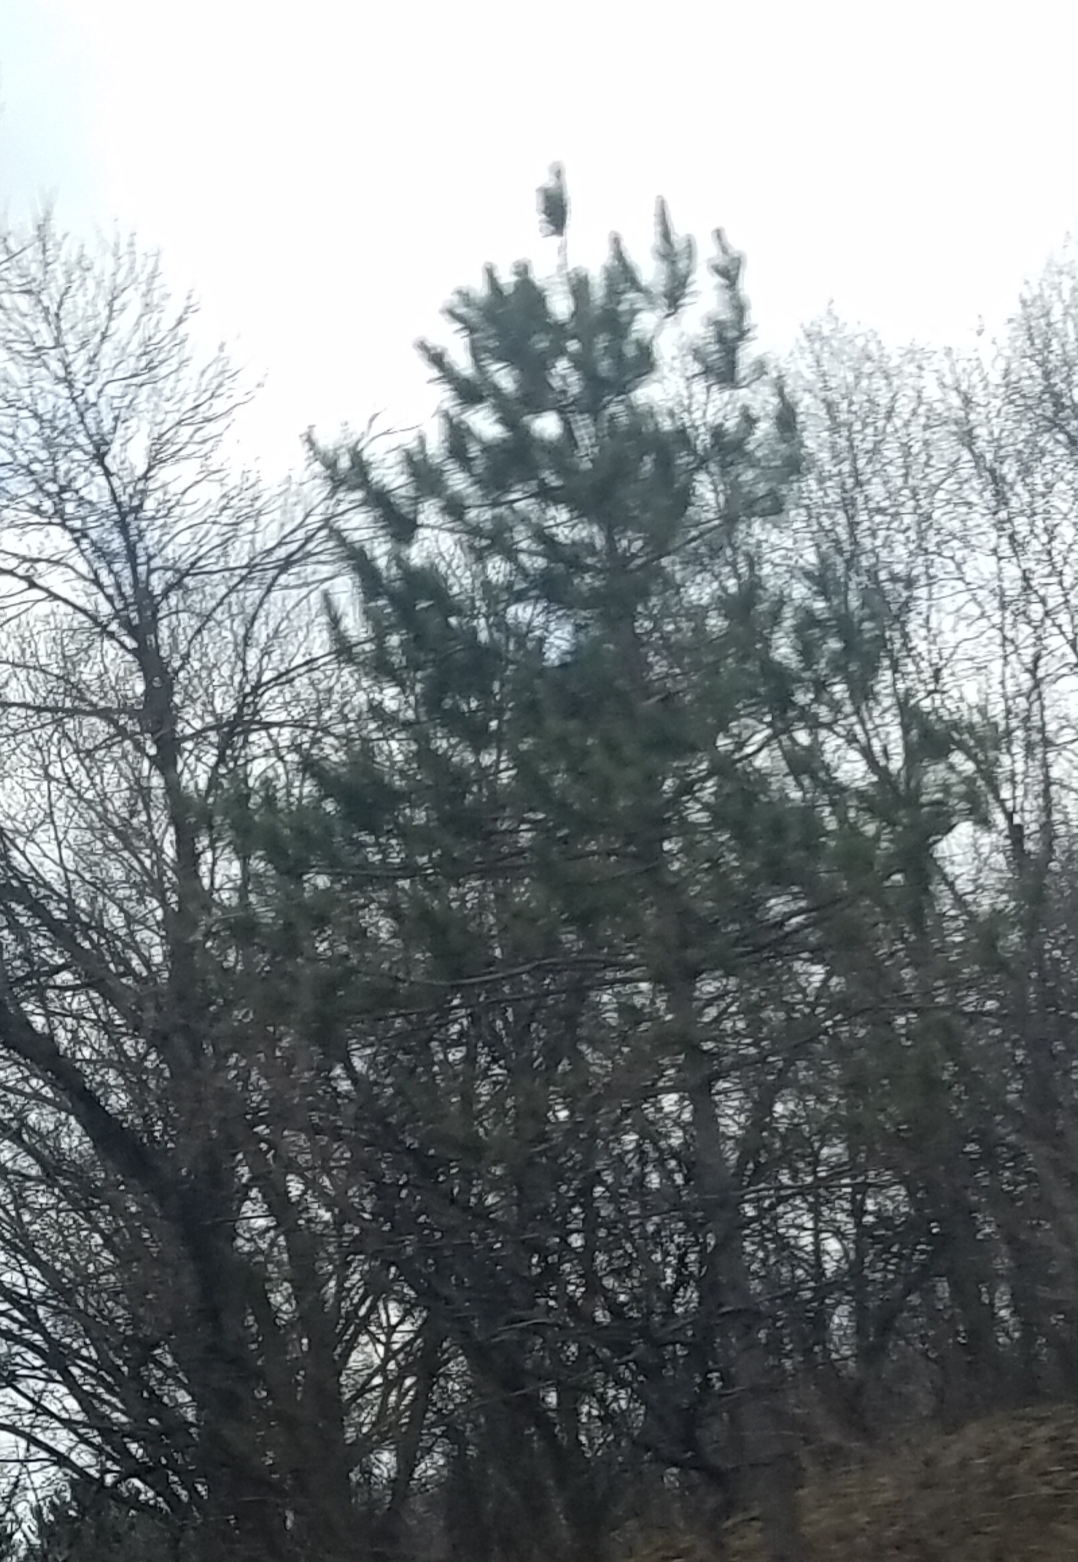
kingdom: Plantae
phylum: Tracheophyta
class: Pinopsida
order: Pinales
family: Pinaceae
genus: Pinus
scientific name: Pinus strobus
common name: Weymouth pine
